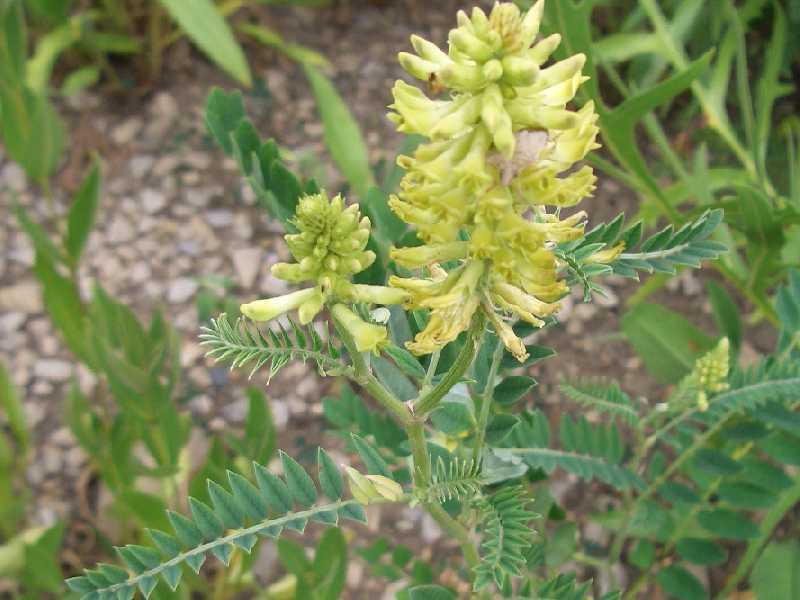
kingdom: Plantae
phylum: Tracheophyta
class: Magnoliopsida
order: Fabales
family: Fabaceae
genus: Astragalus
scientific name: Astragalus canadensis
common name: Canada milk-vetch
